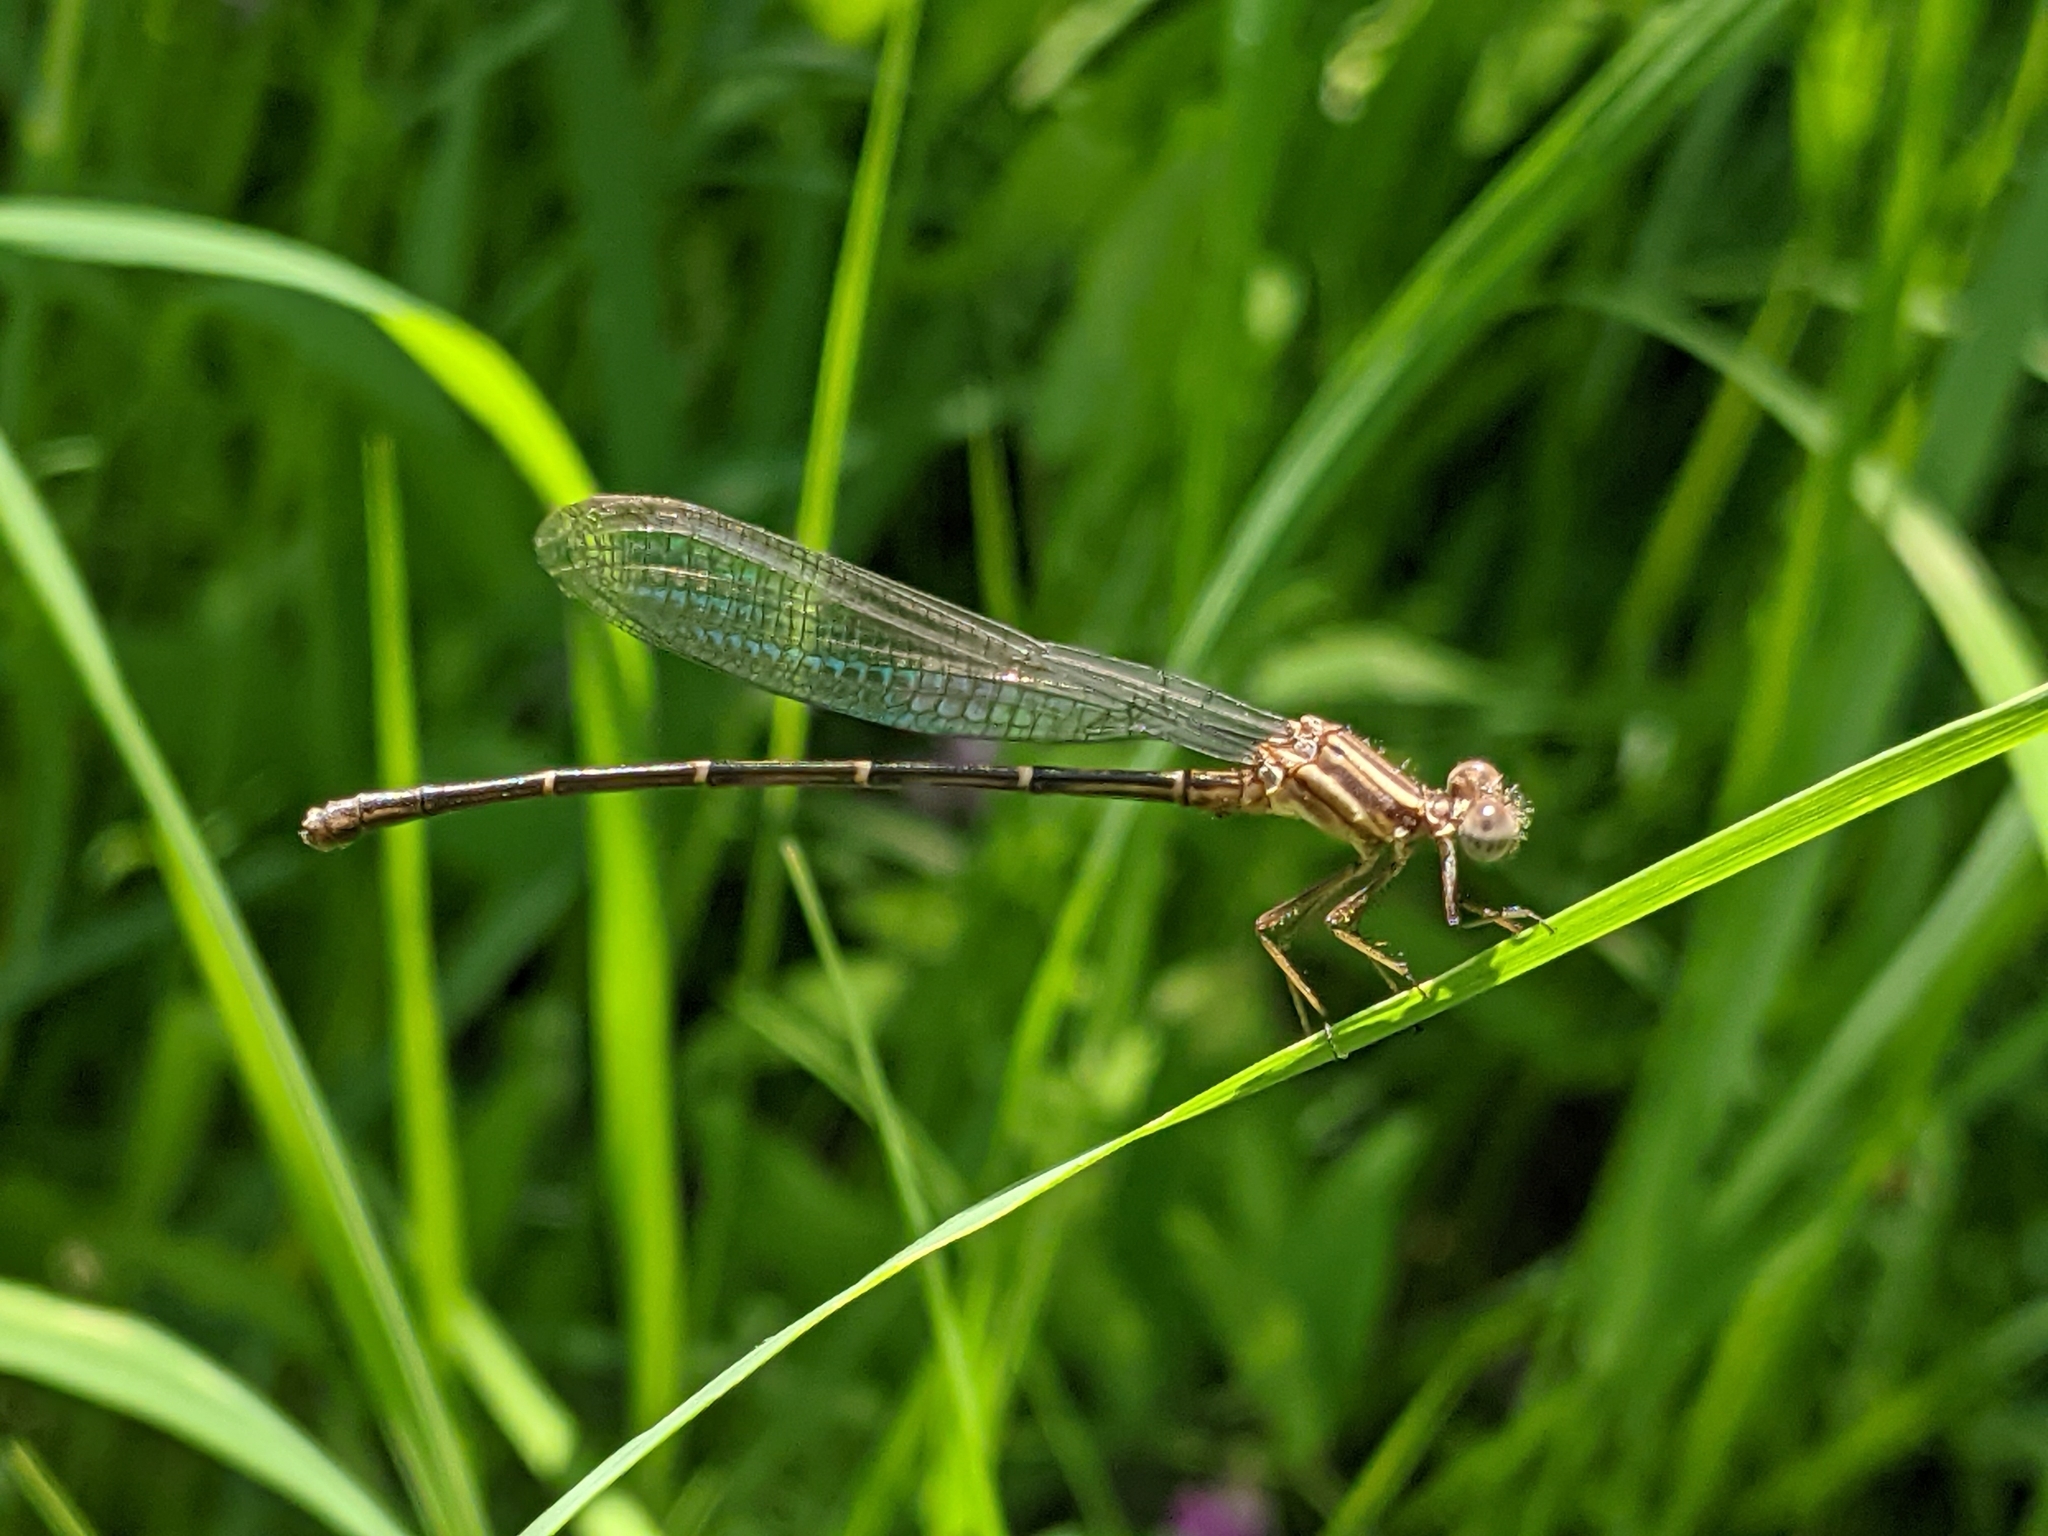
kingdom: Animalia
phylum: Arthropoda
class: Insecta
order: Odonata
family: Coenagrionidae
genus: Argia
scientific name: Argia moesta
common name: Powdered dancer
